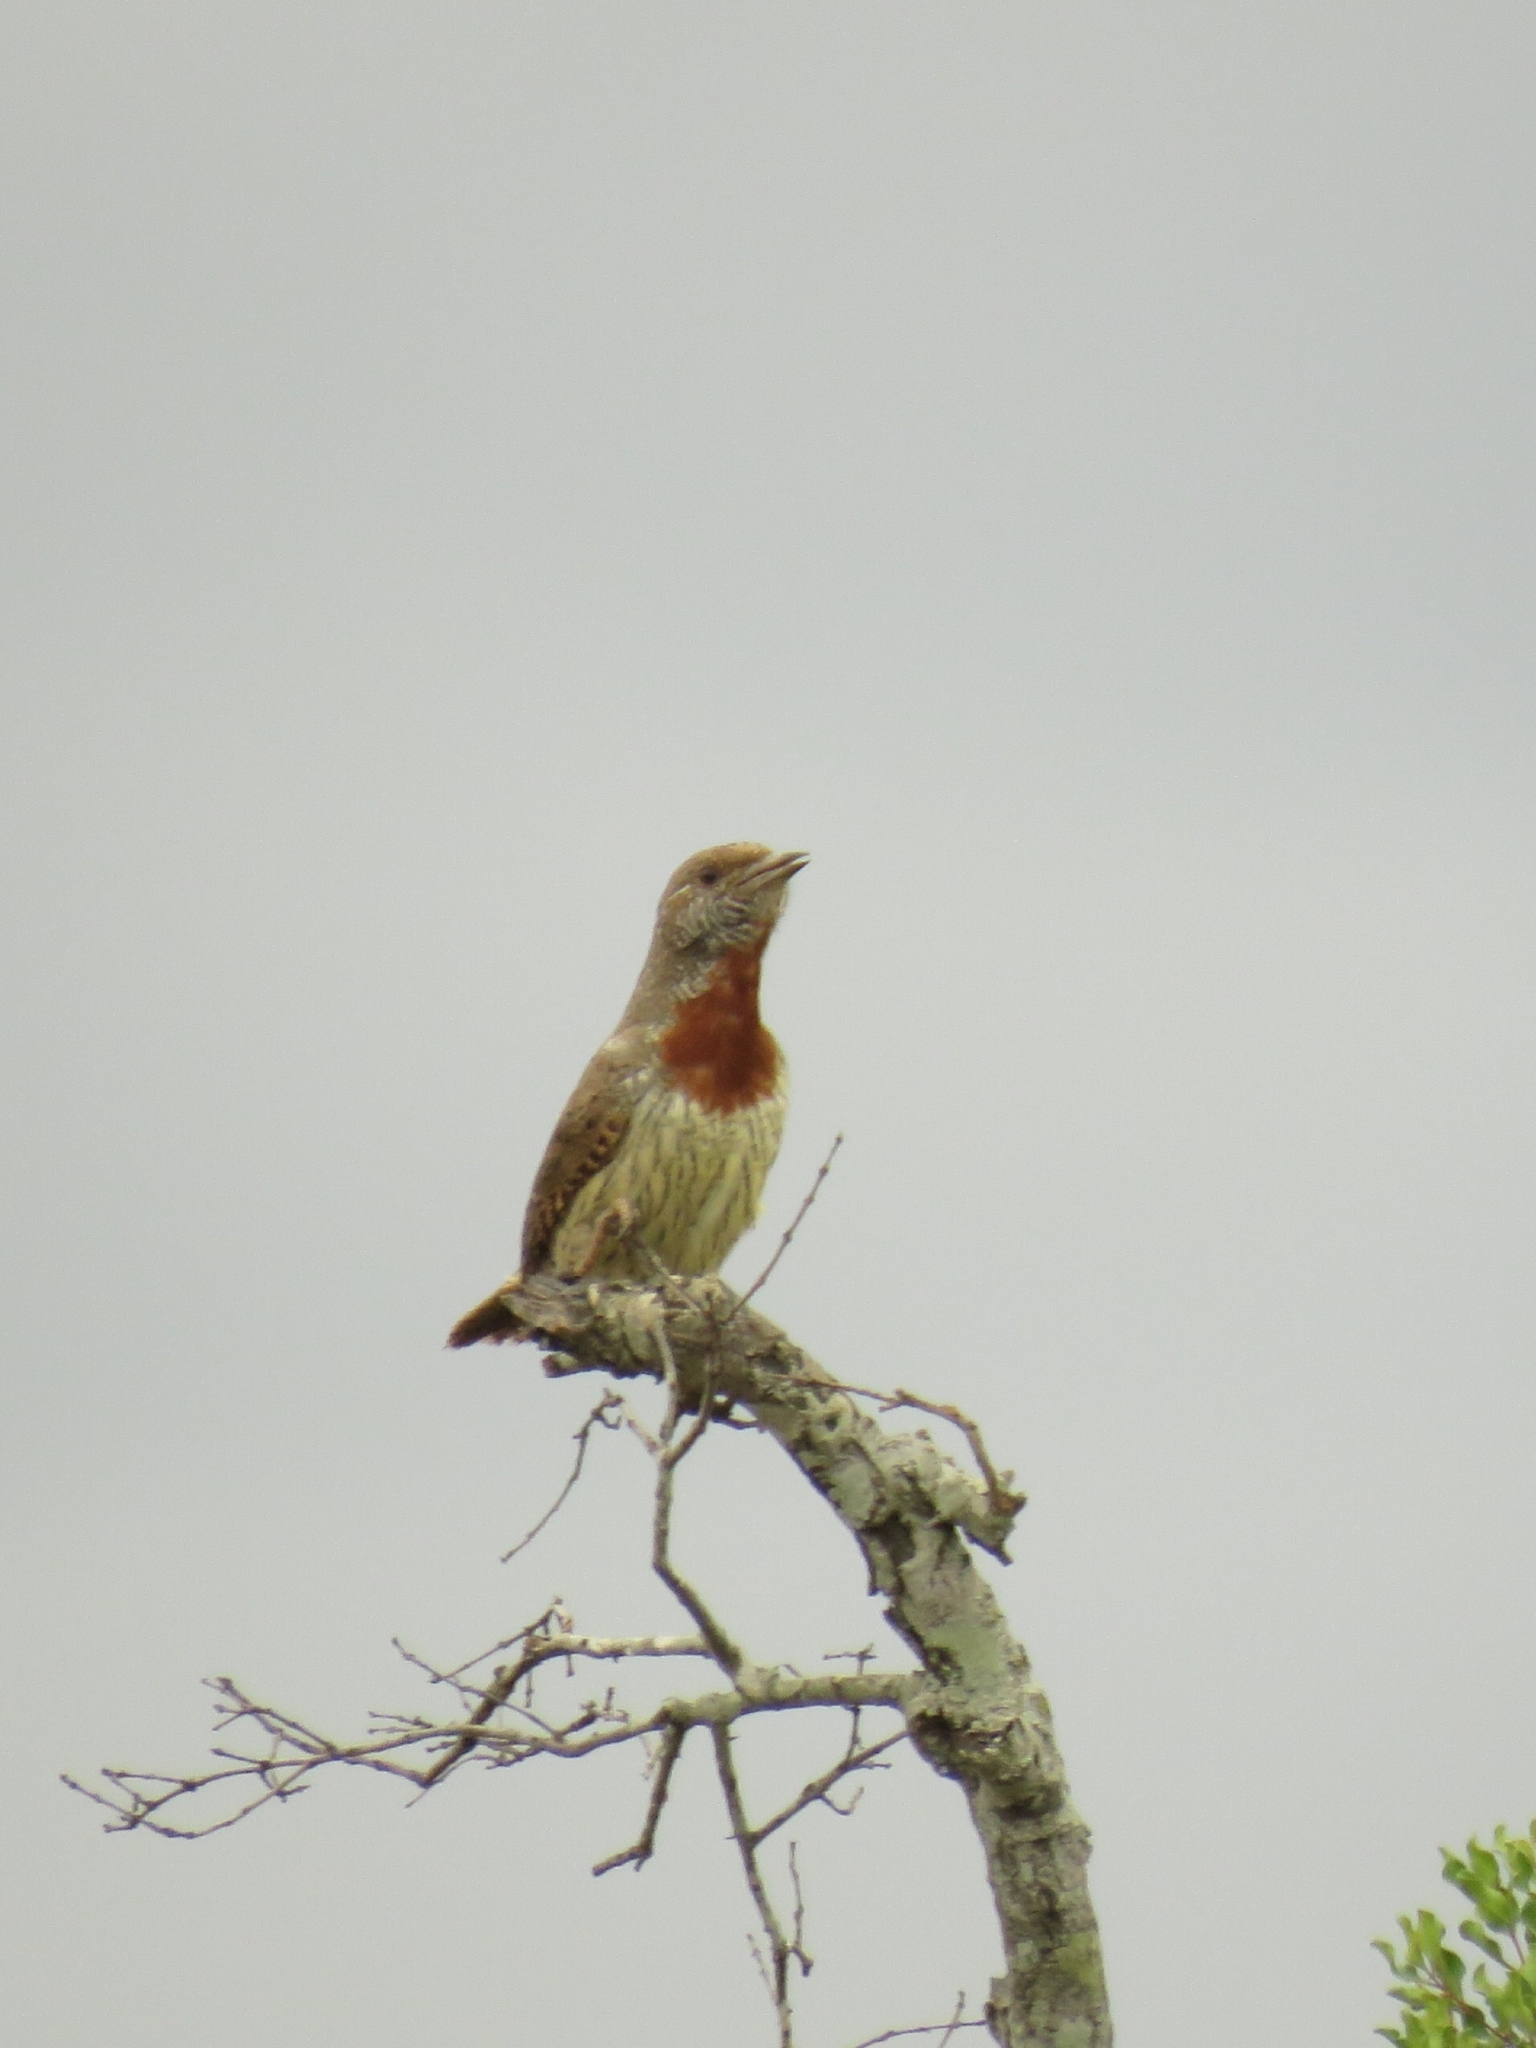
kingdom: Animalia
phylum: Chordata
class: Aves
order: Piciformes
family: Picidae
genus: Jynx
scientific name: Jynx ruficollis
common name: Red-throated wryneck
